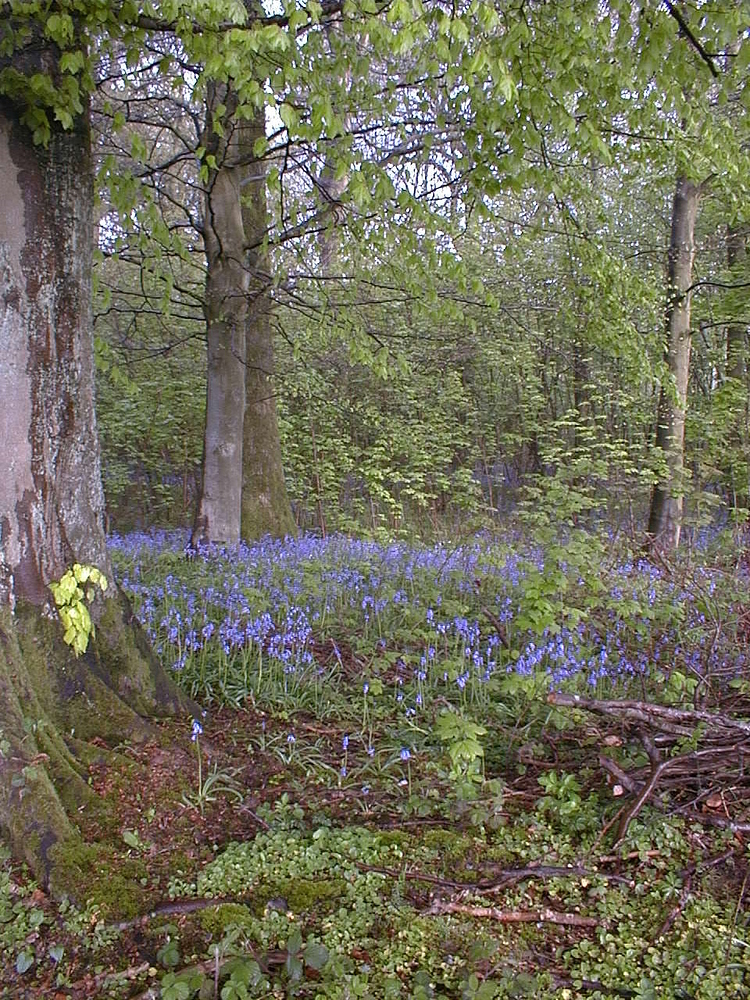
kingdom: Plantae
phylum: Tracheophyta
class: Liliopsida
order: Asparagales
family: Asparagaceae
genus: Hyacinthoides
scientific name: Hyacinthoides non-scripta
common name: Bluebell
